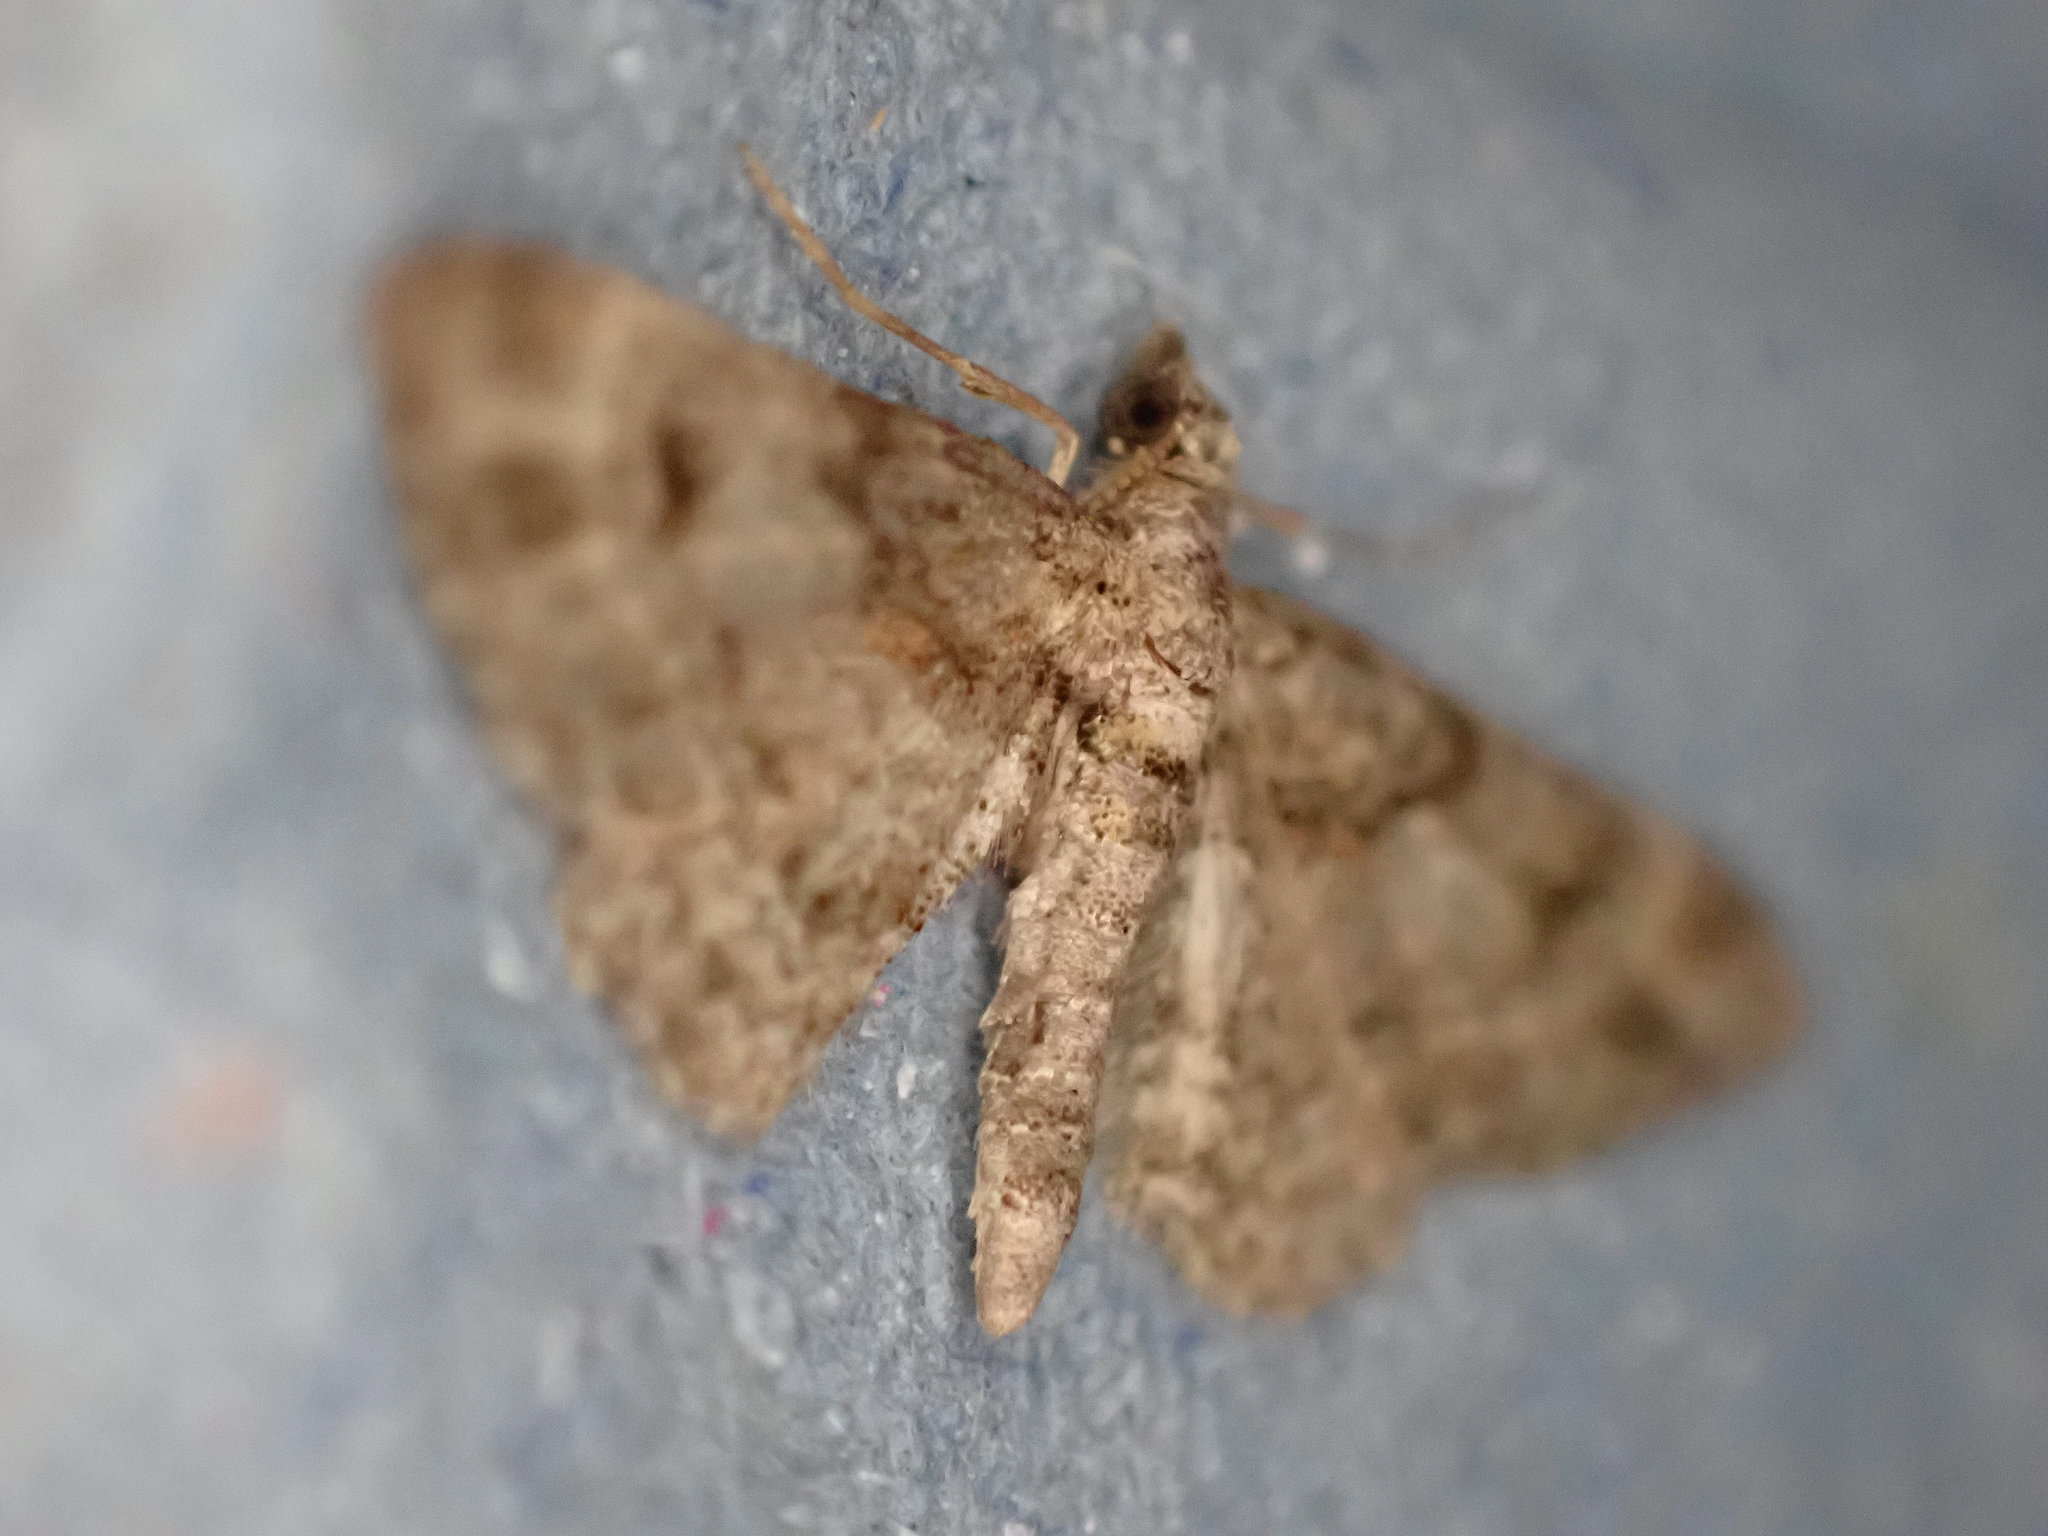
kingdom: Animalia
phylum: Arthropoda
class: Insecta
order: Lepidoptera
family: Geometridae
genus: Gymnoscelis
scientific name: Gymnoscelis rufifasciata
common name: Double-striped pug
